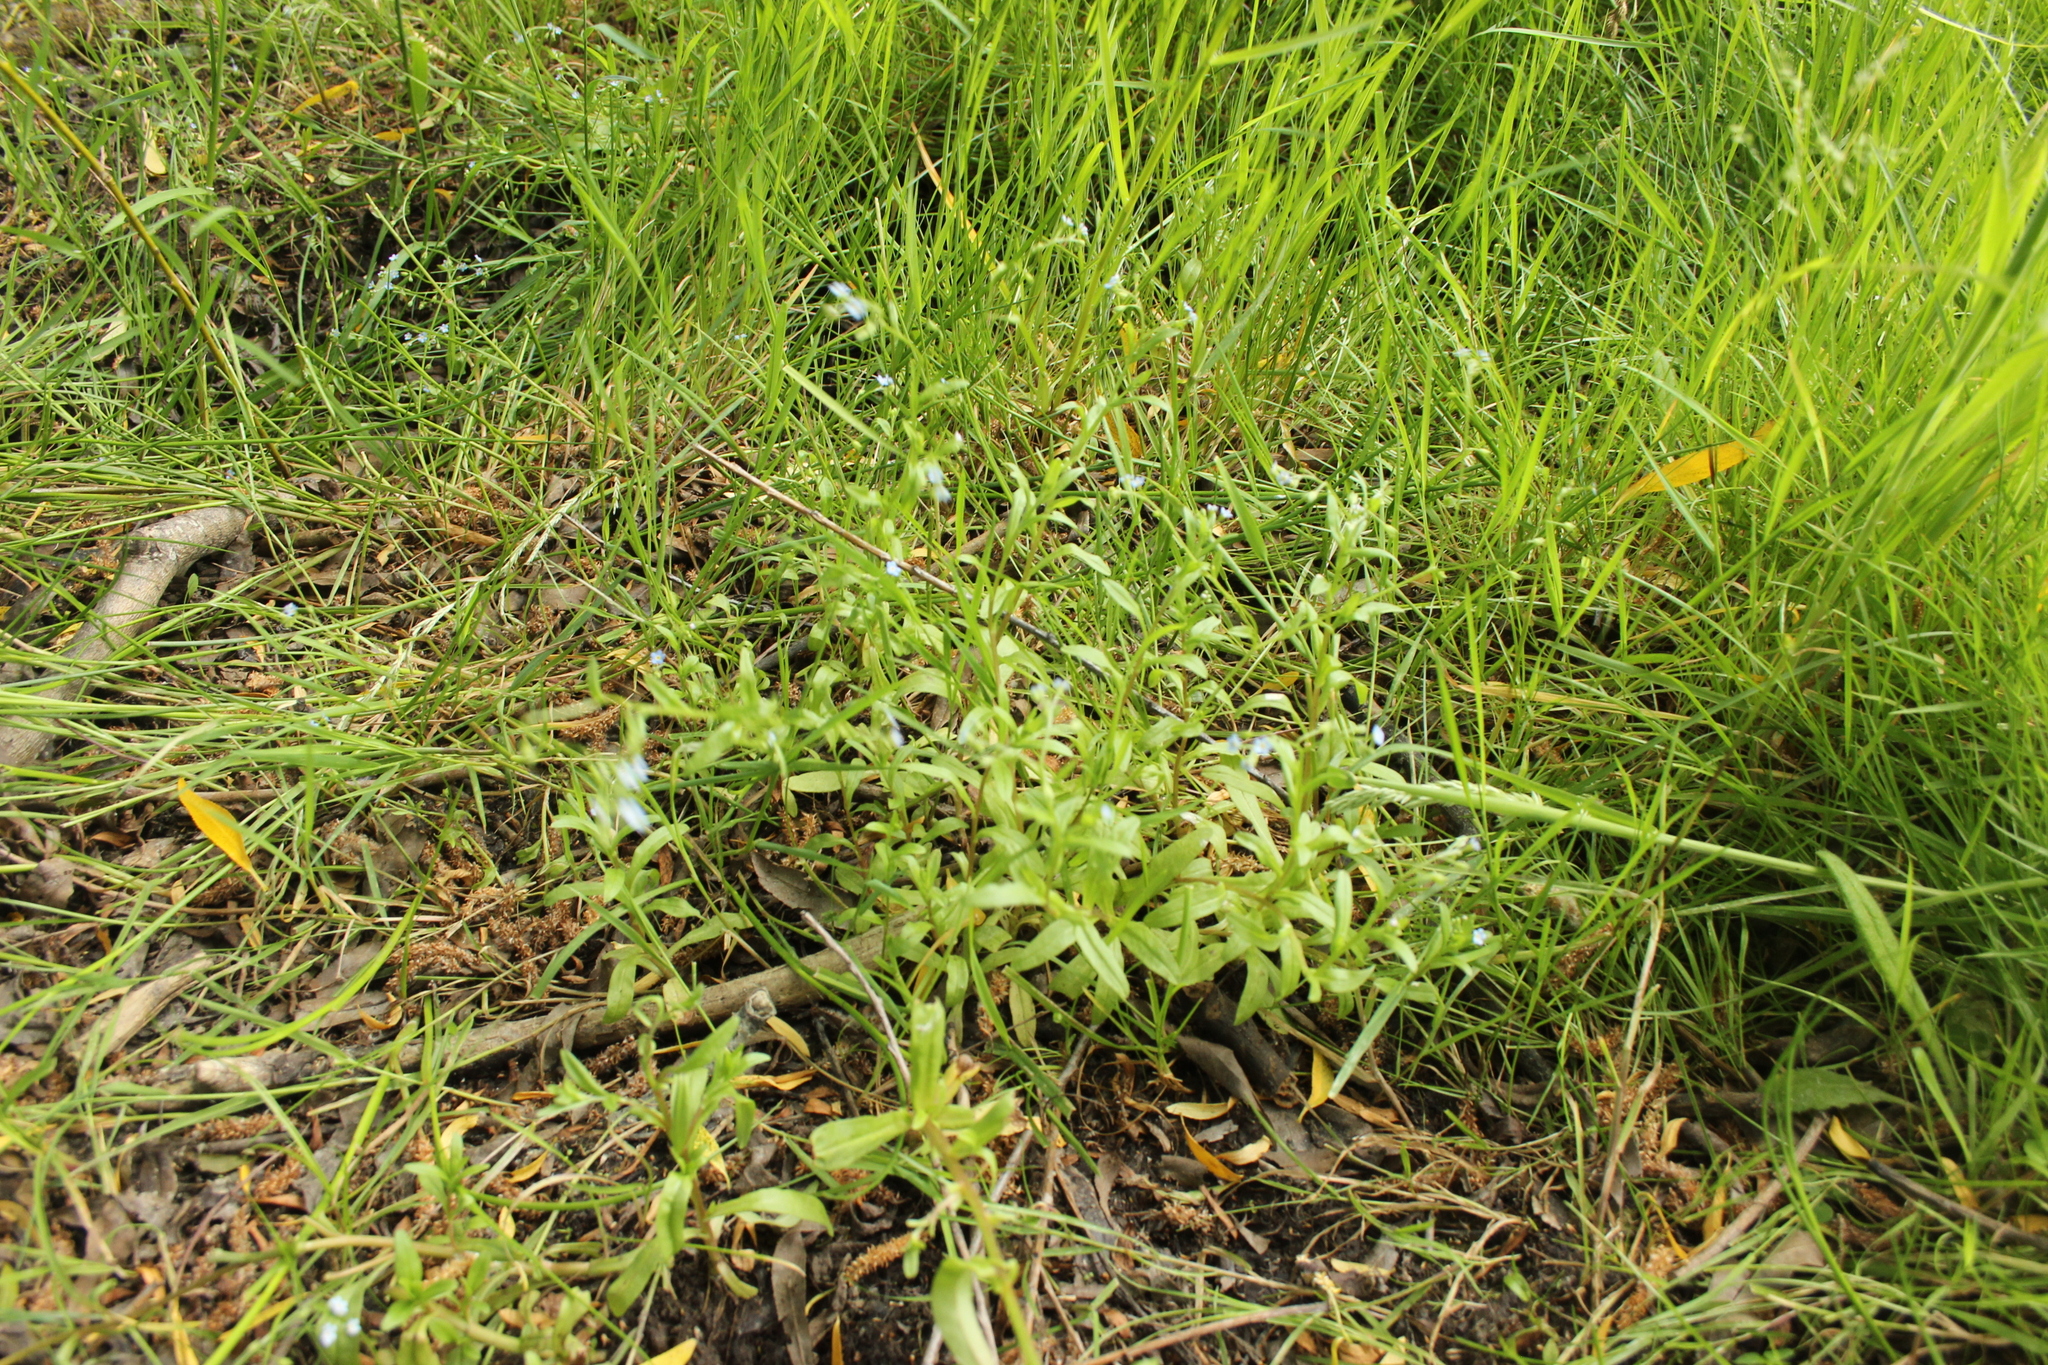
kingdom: Plantae
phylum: Tracheophyta
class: Magnoliopsida
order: Boraginales
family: Boraginaceae
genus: Myosotis
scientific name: Myosotis laxa
